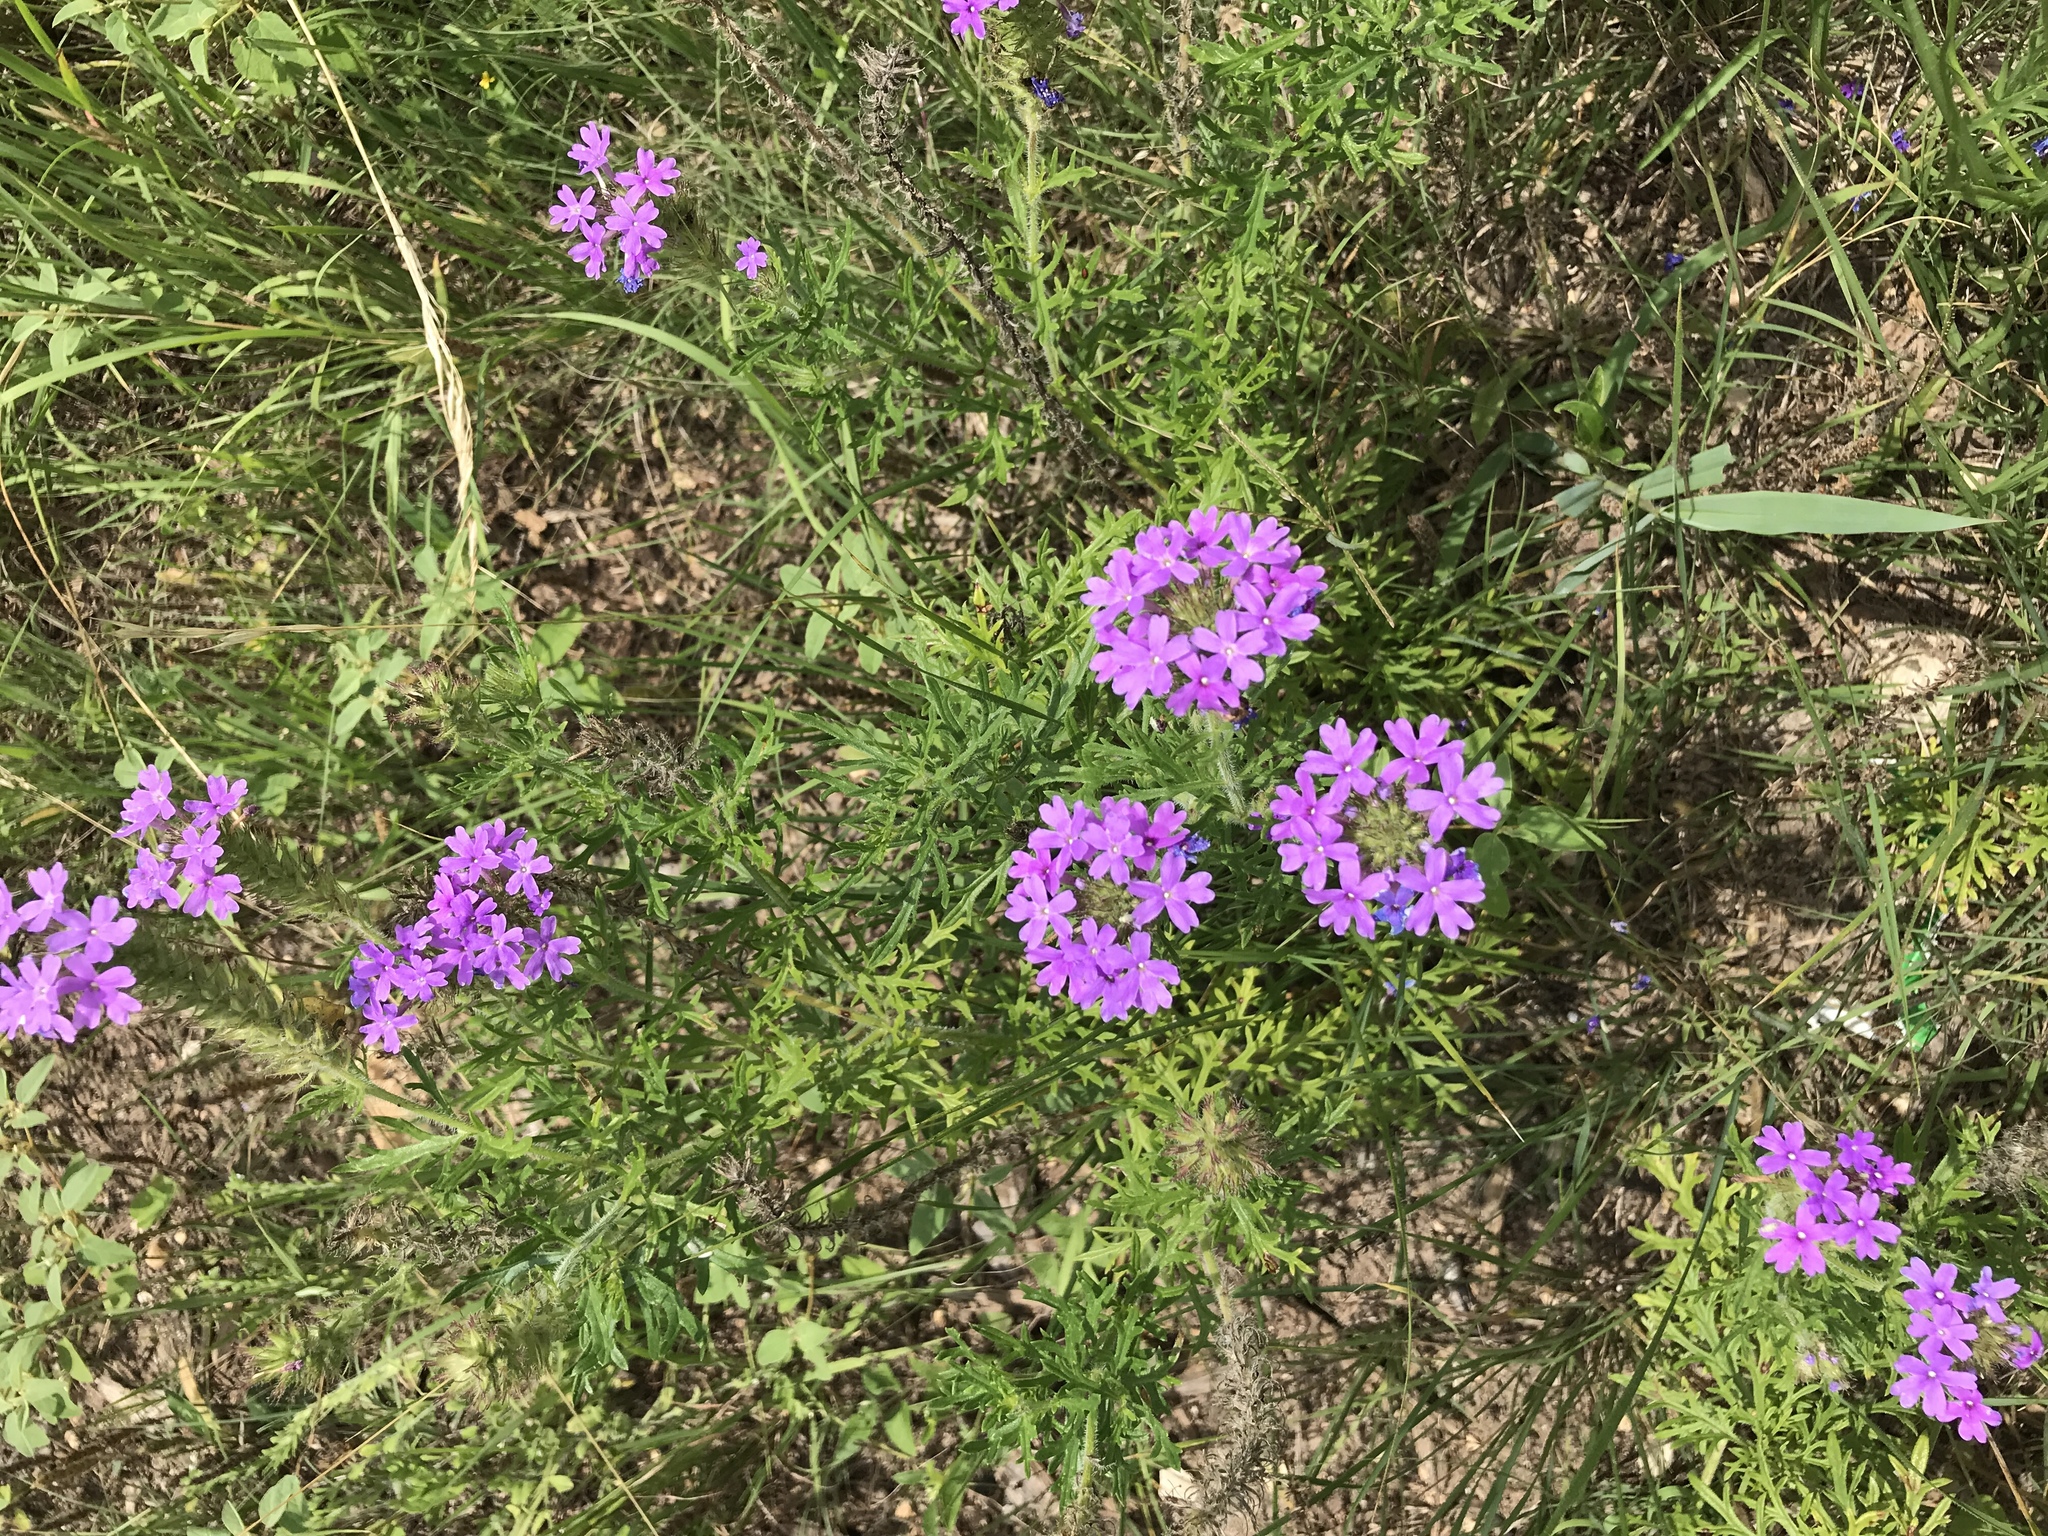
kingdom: Plantae
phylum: Tracheophyta
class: Magnoliopsida
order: Lamiales
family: Verbenaceae
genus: Verbena
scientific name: Verbena bipinnatifida
